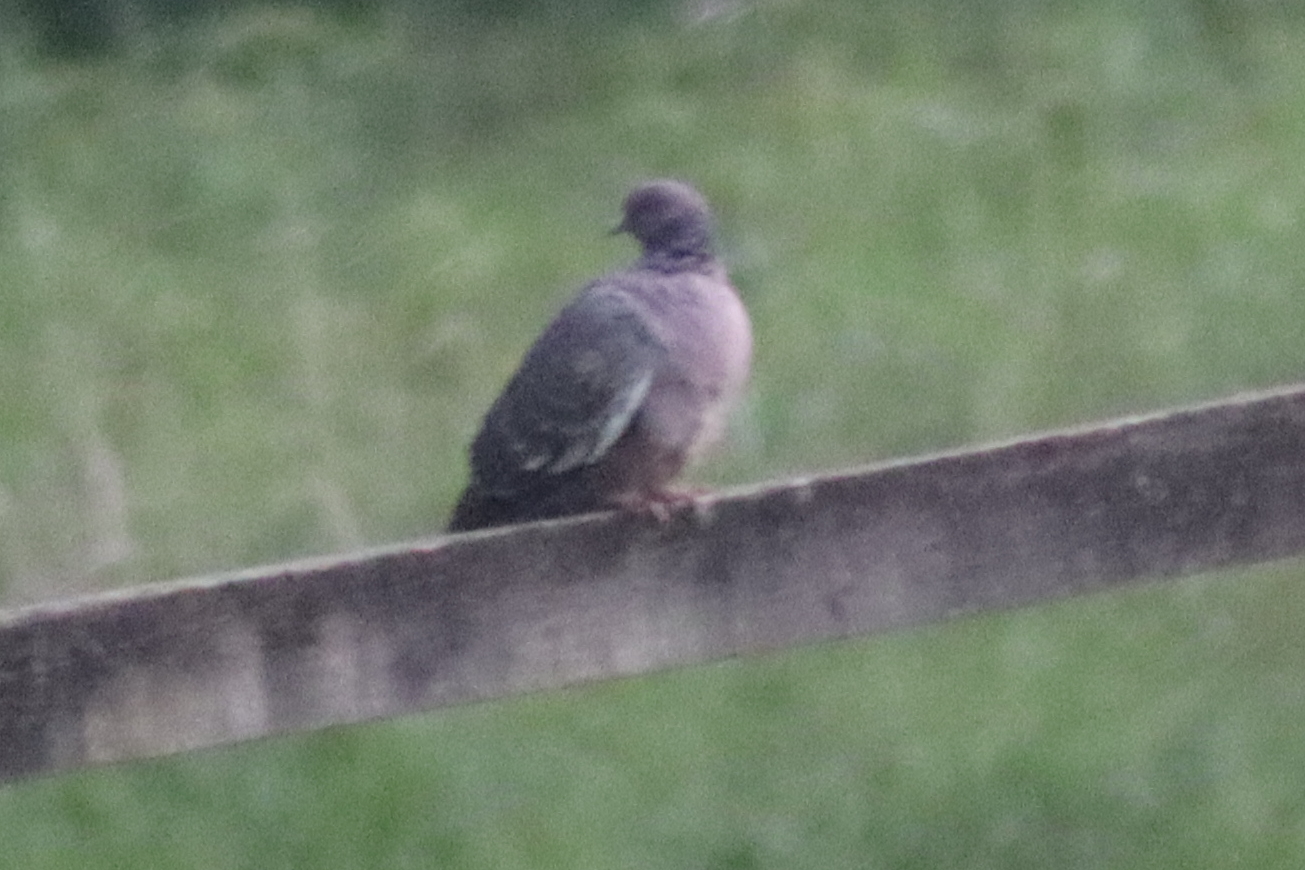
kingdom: Animalia
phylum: Chordata
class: Aves
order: Columbiformes
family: Columbidae
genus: Patagioenas
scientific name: Patagioenas picazuro
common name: Picazuro pigeon
